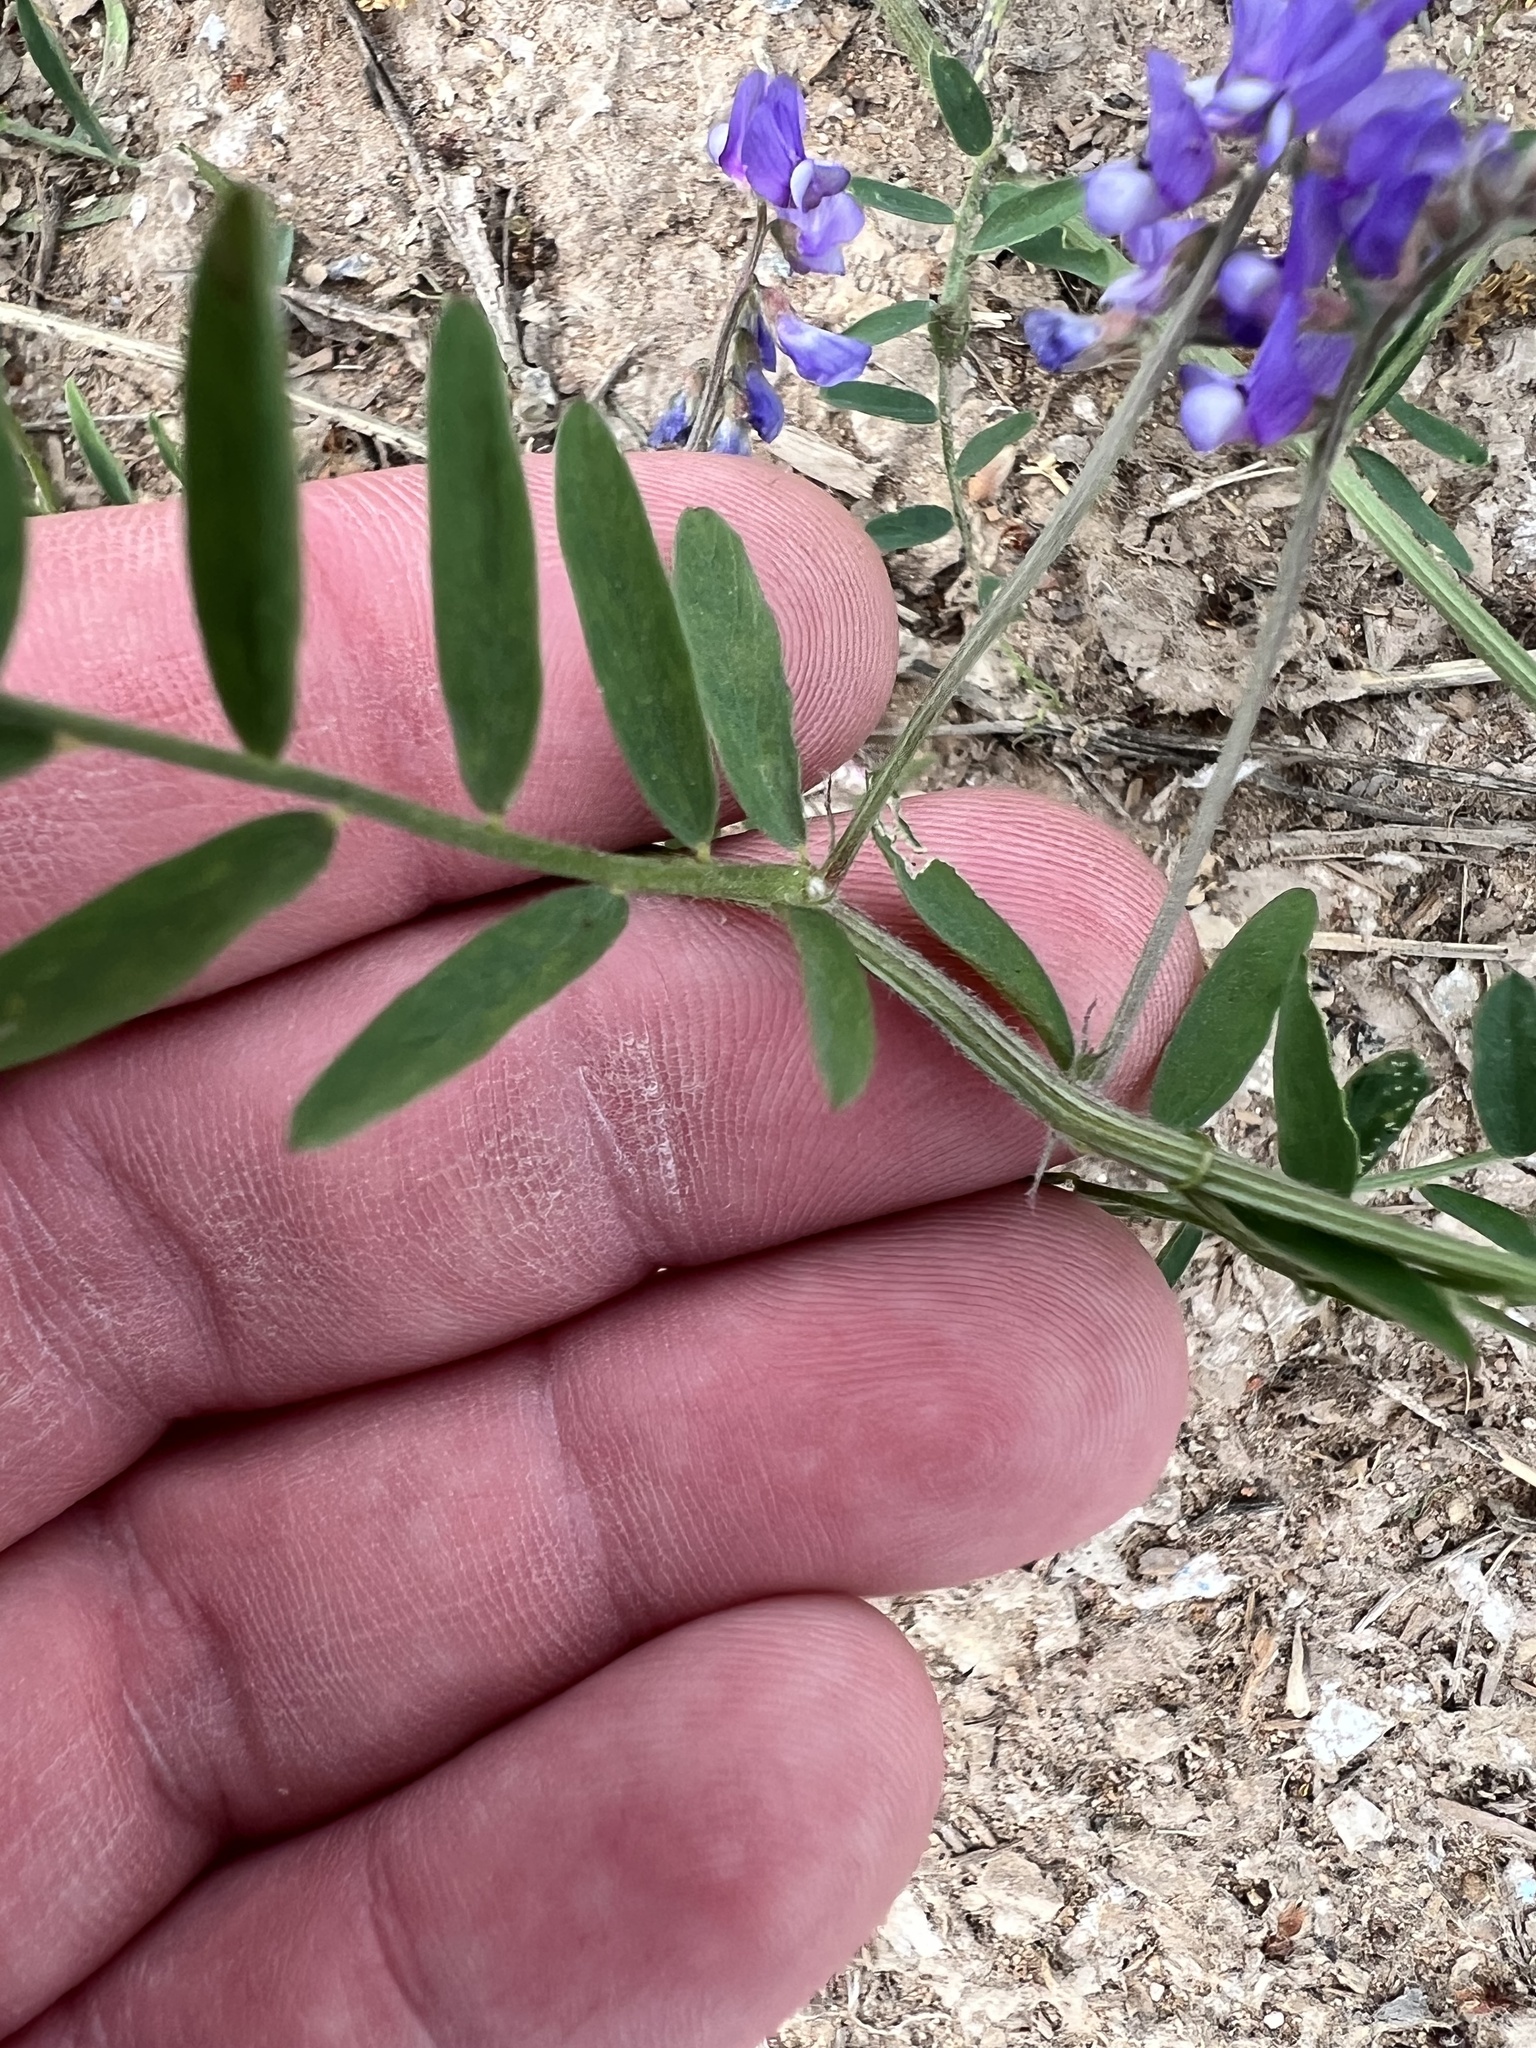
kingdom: Plantae
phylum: Tracheophyta
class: Magnoliopsida
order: Fabales
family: Fabaceae
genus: Vicia
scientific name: Vicia ludoviciana
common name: Louisiana vetch
